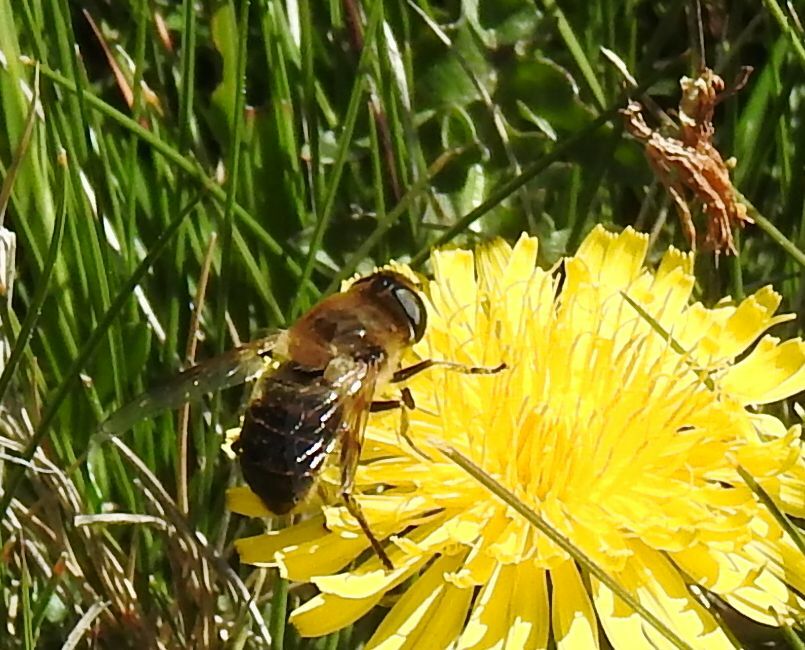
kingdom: Animalia
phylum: Arthropoda
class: Insecta
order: Diptera
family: Syrphidae
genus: Eristalis
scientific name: Eristalis tenax
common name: Drone fly
